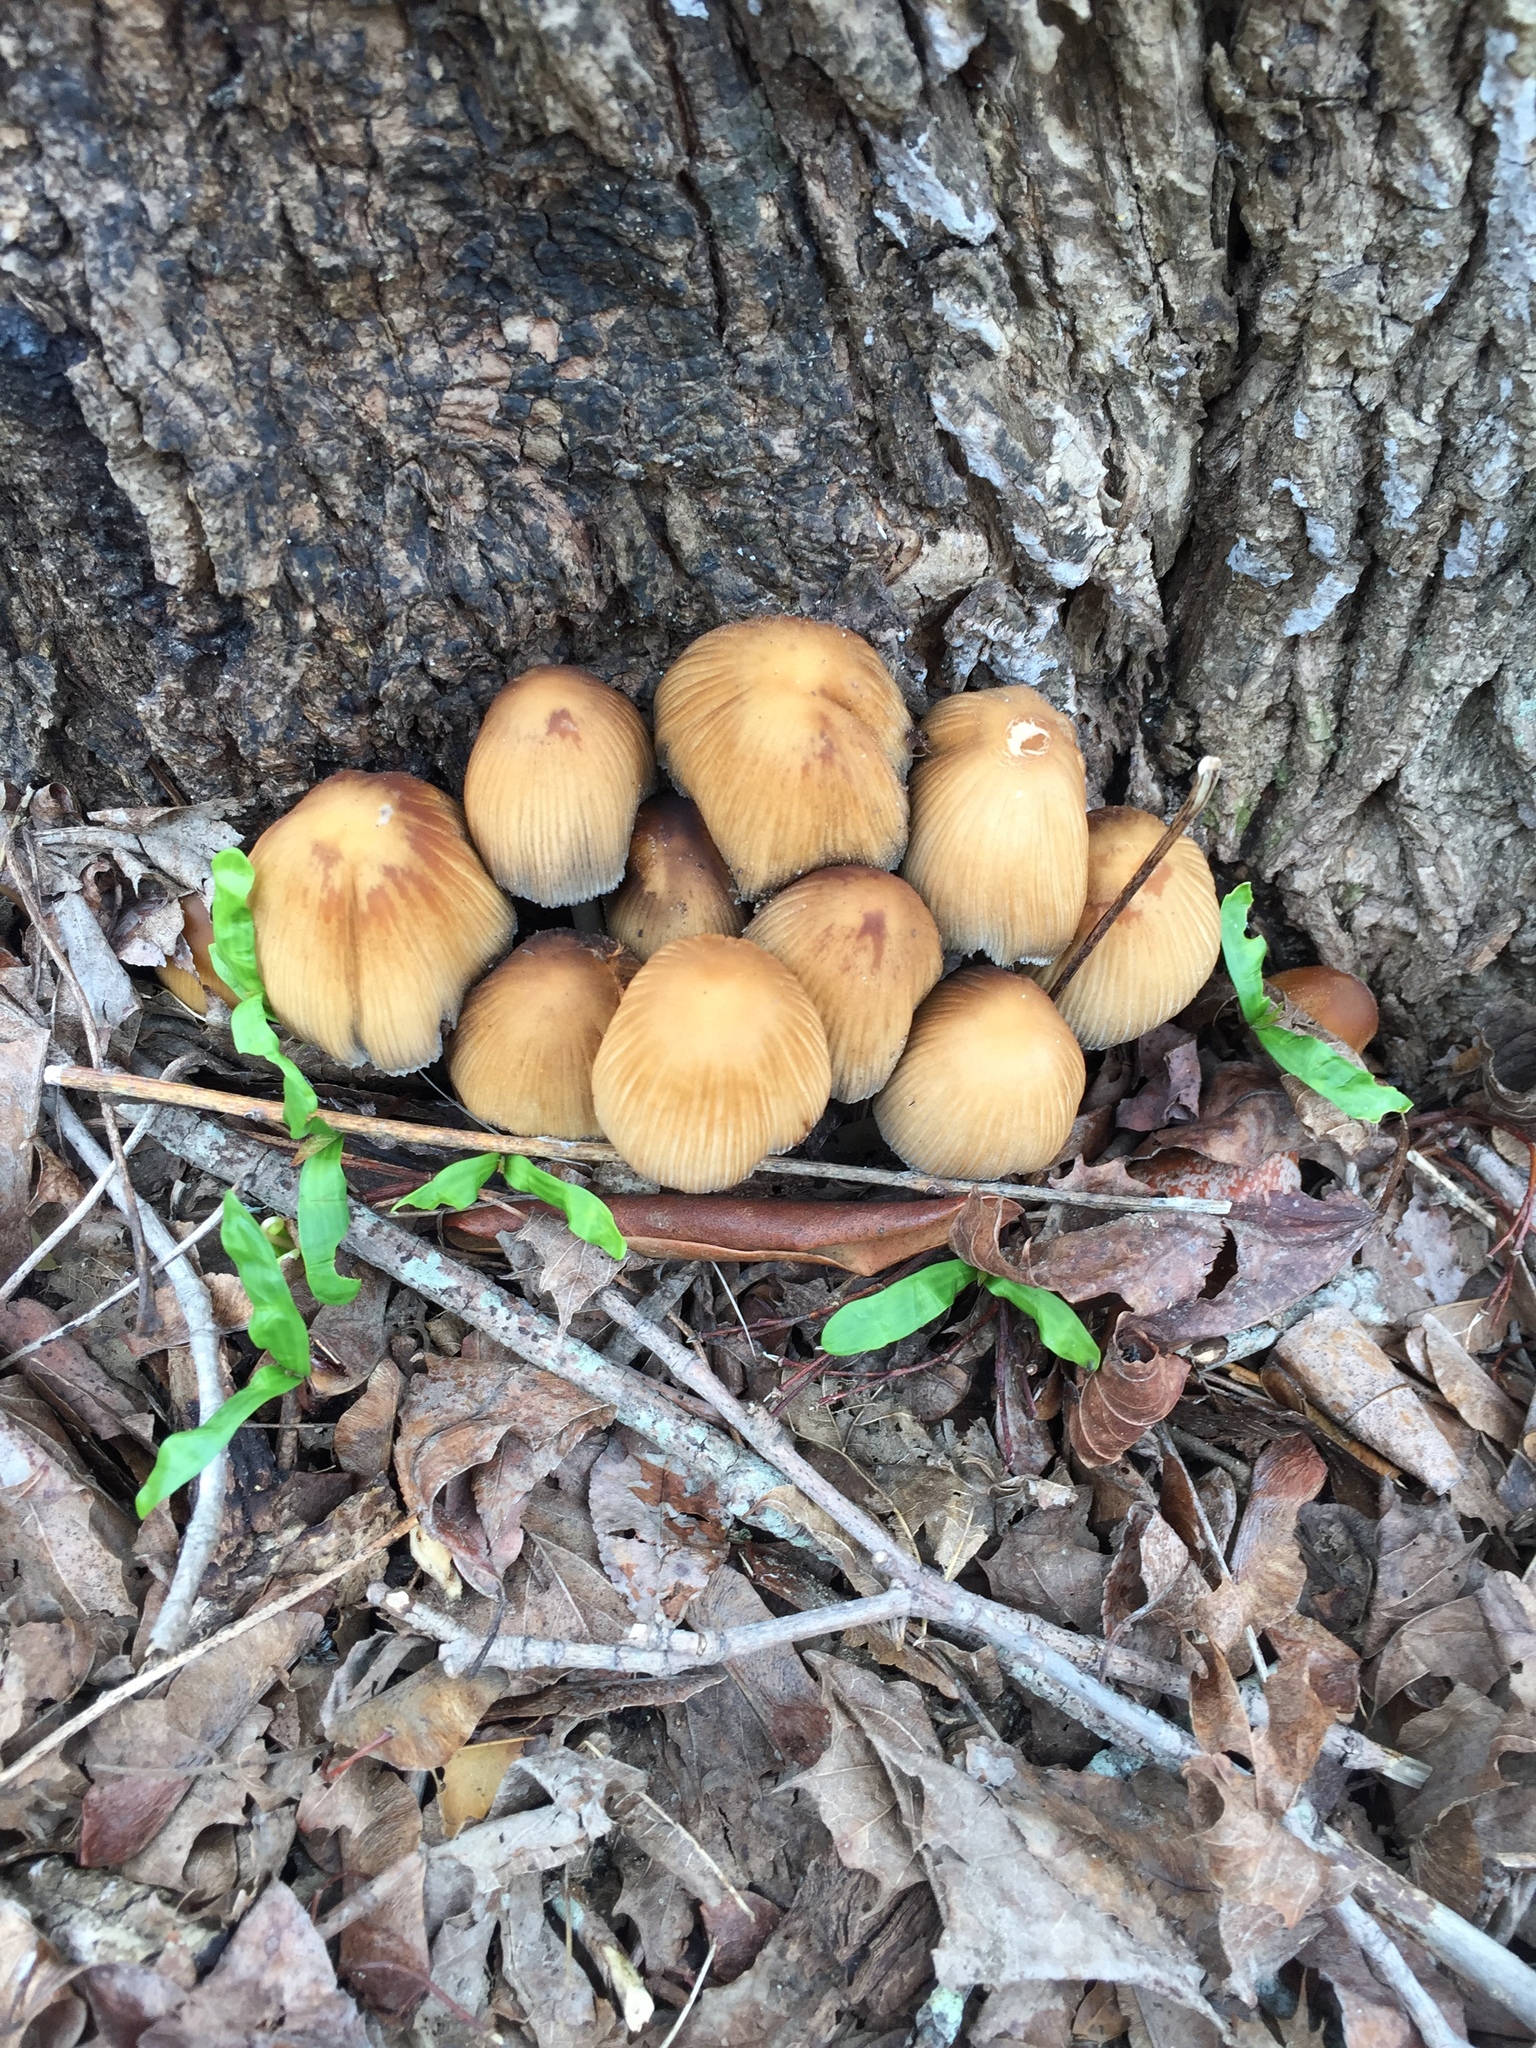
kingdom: Fungi
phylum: Basidiomycota
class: Agaricomycetes
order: Agaricales
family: Psathyrellaceae
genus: Coprinellus
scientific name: Coprinellus micaceus
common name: Glistening ink-cap
